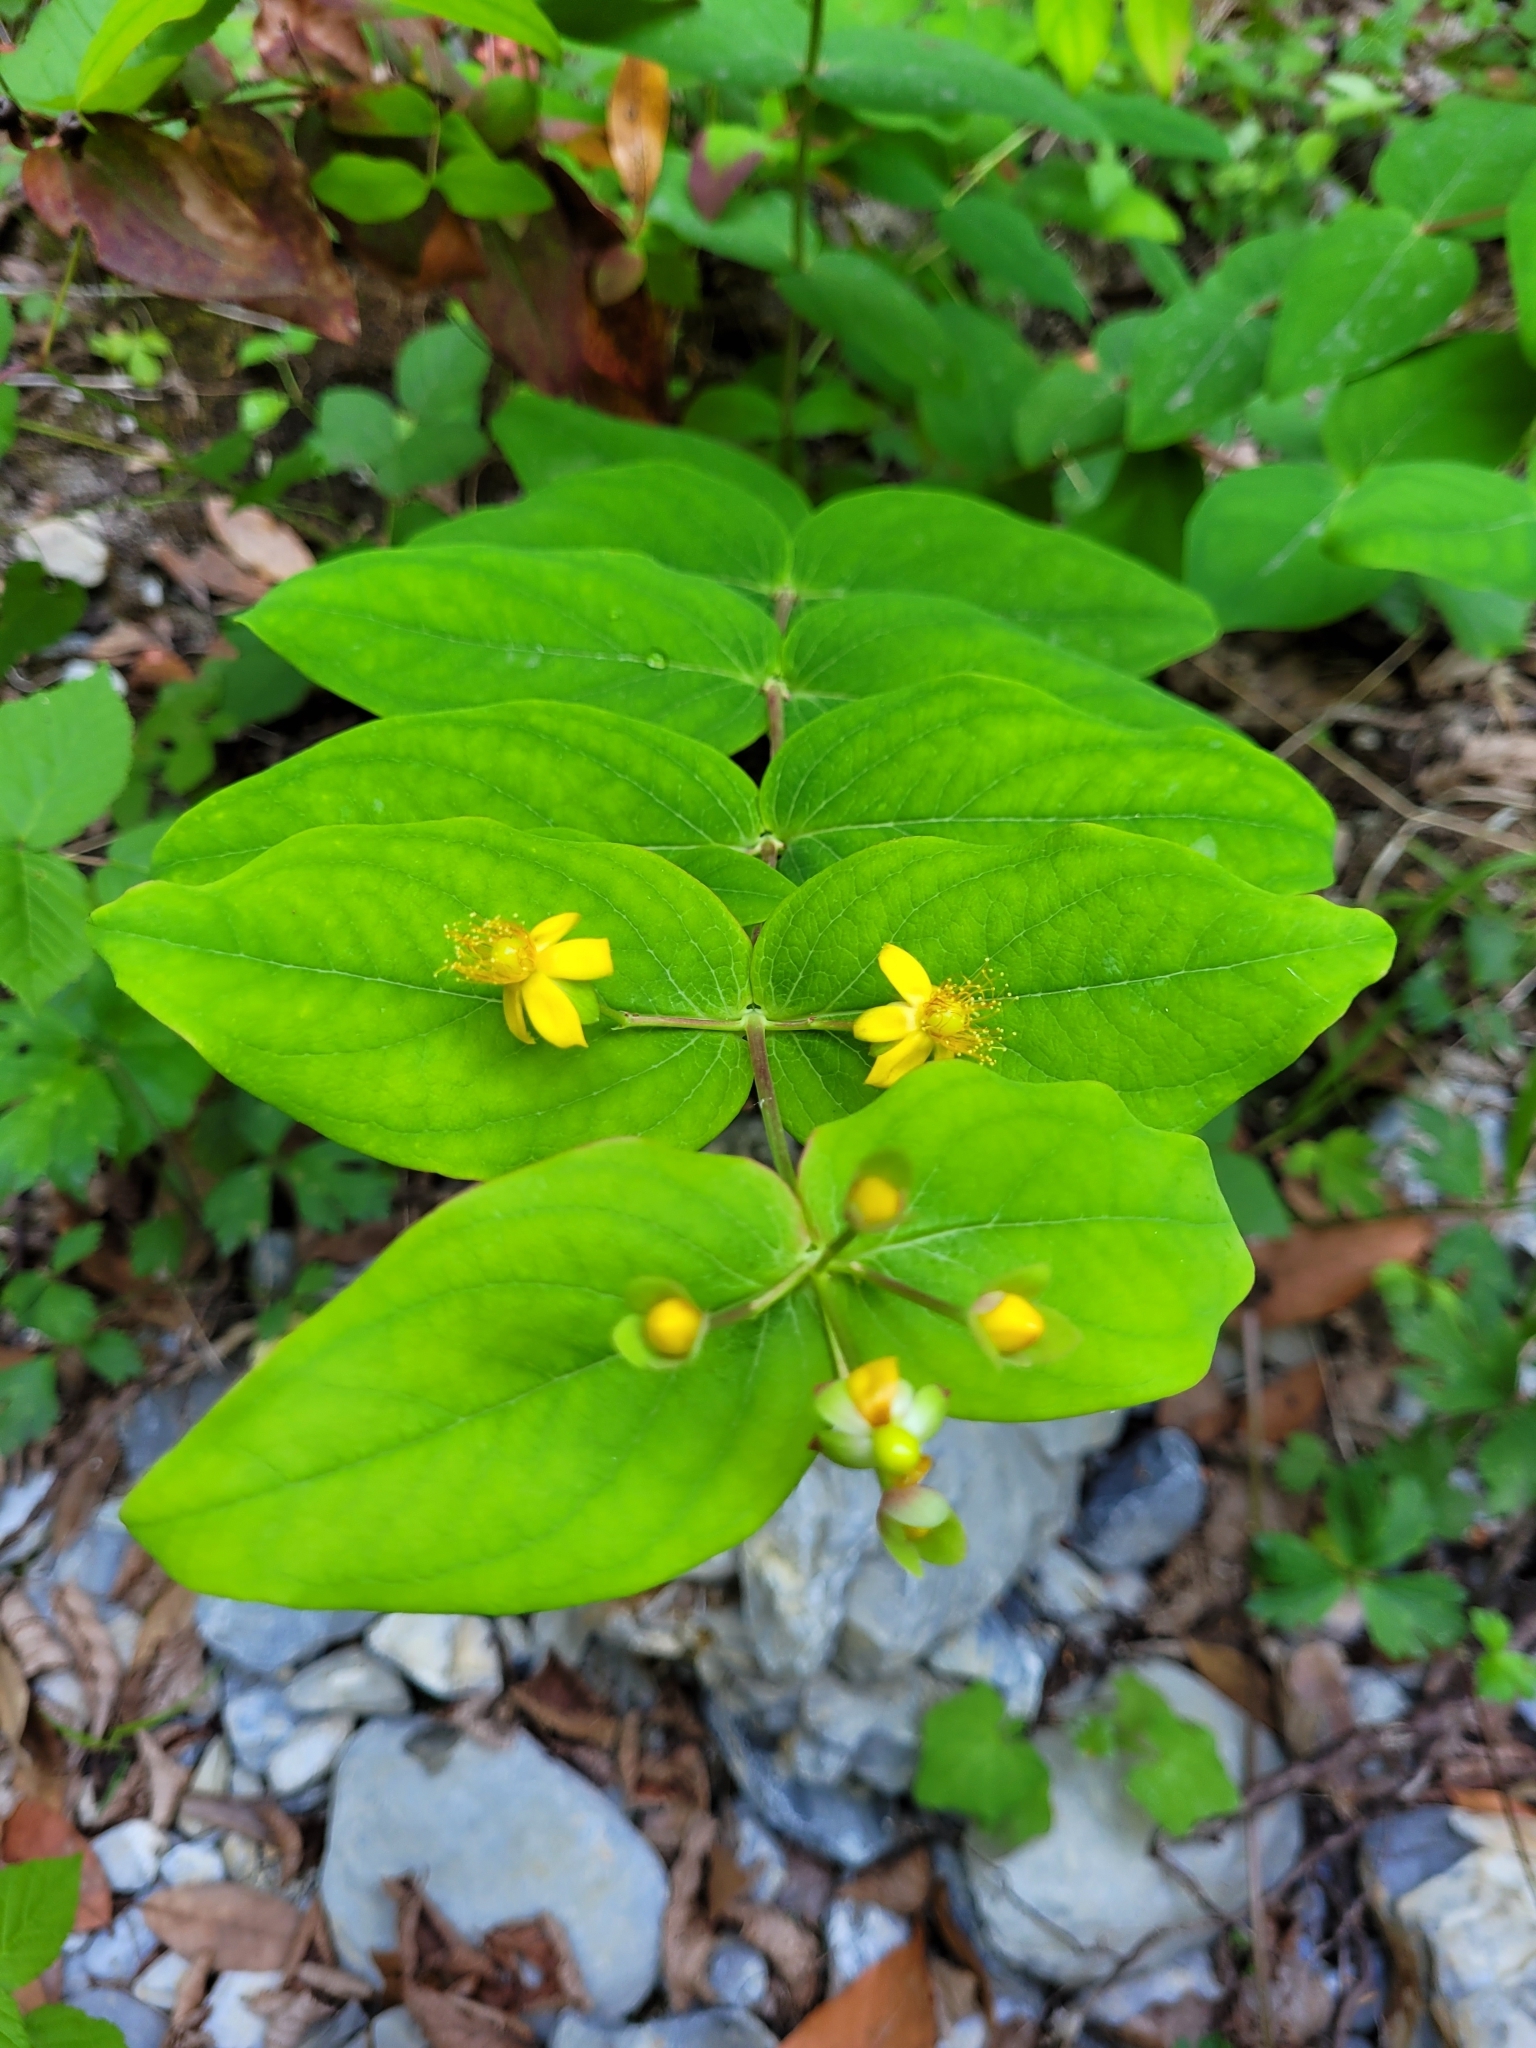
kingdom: Plantae
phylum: Tracheophyta
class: Magnoliopsida
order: Malpighiales
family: Hypericaceae
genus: Hypericum
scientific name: Hypericum androsaemum
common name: Sweet-amber
